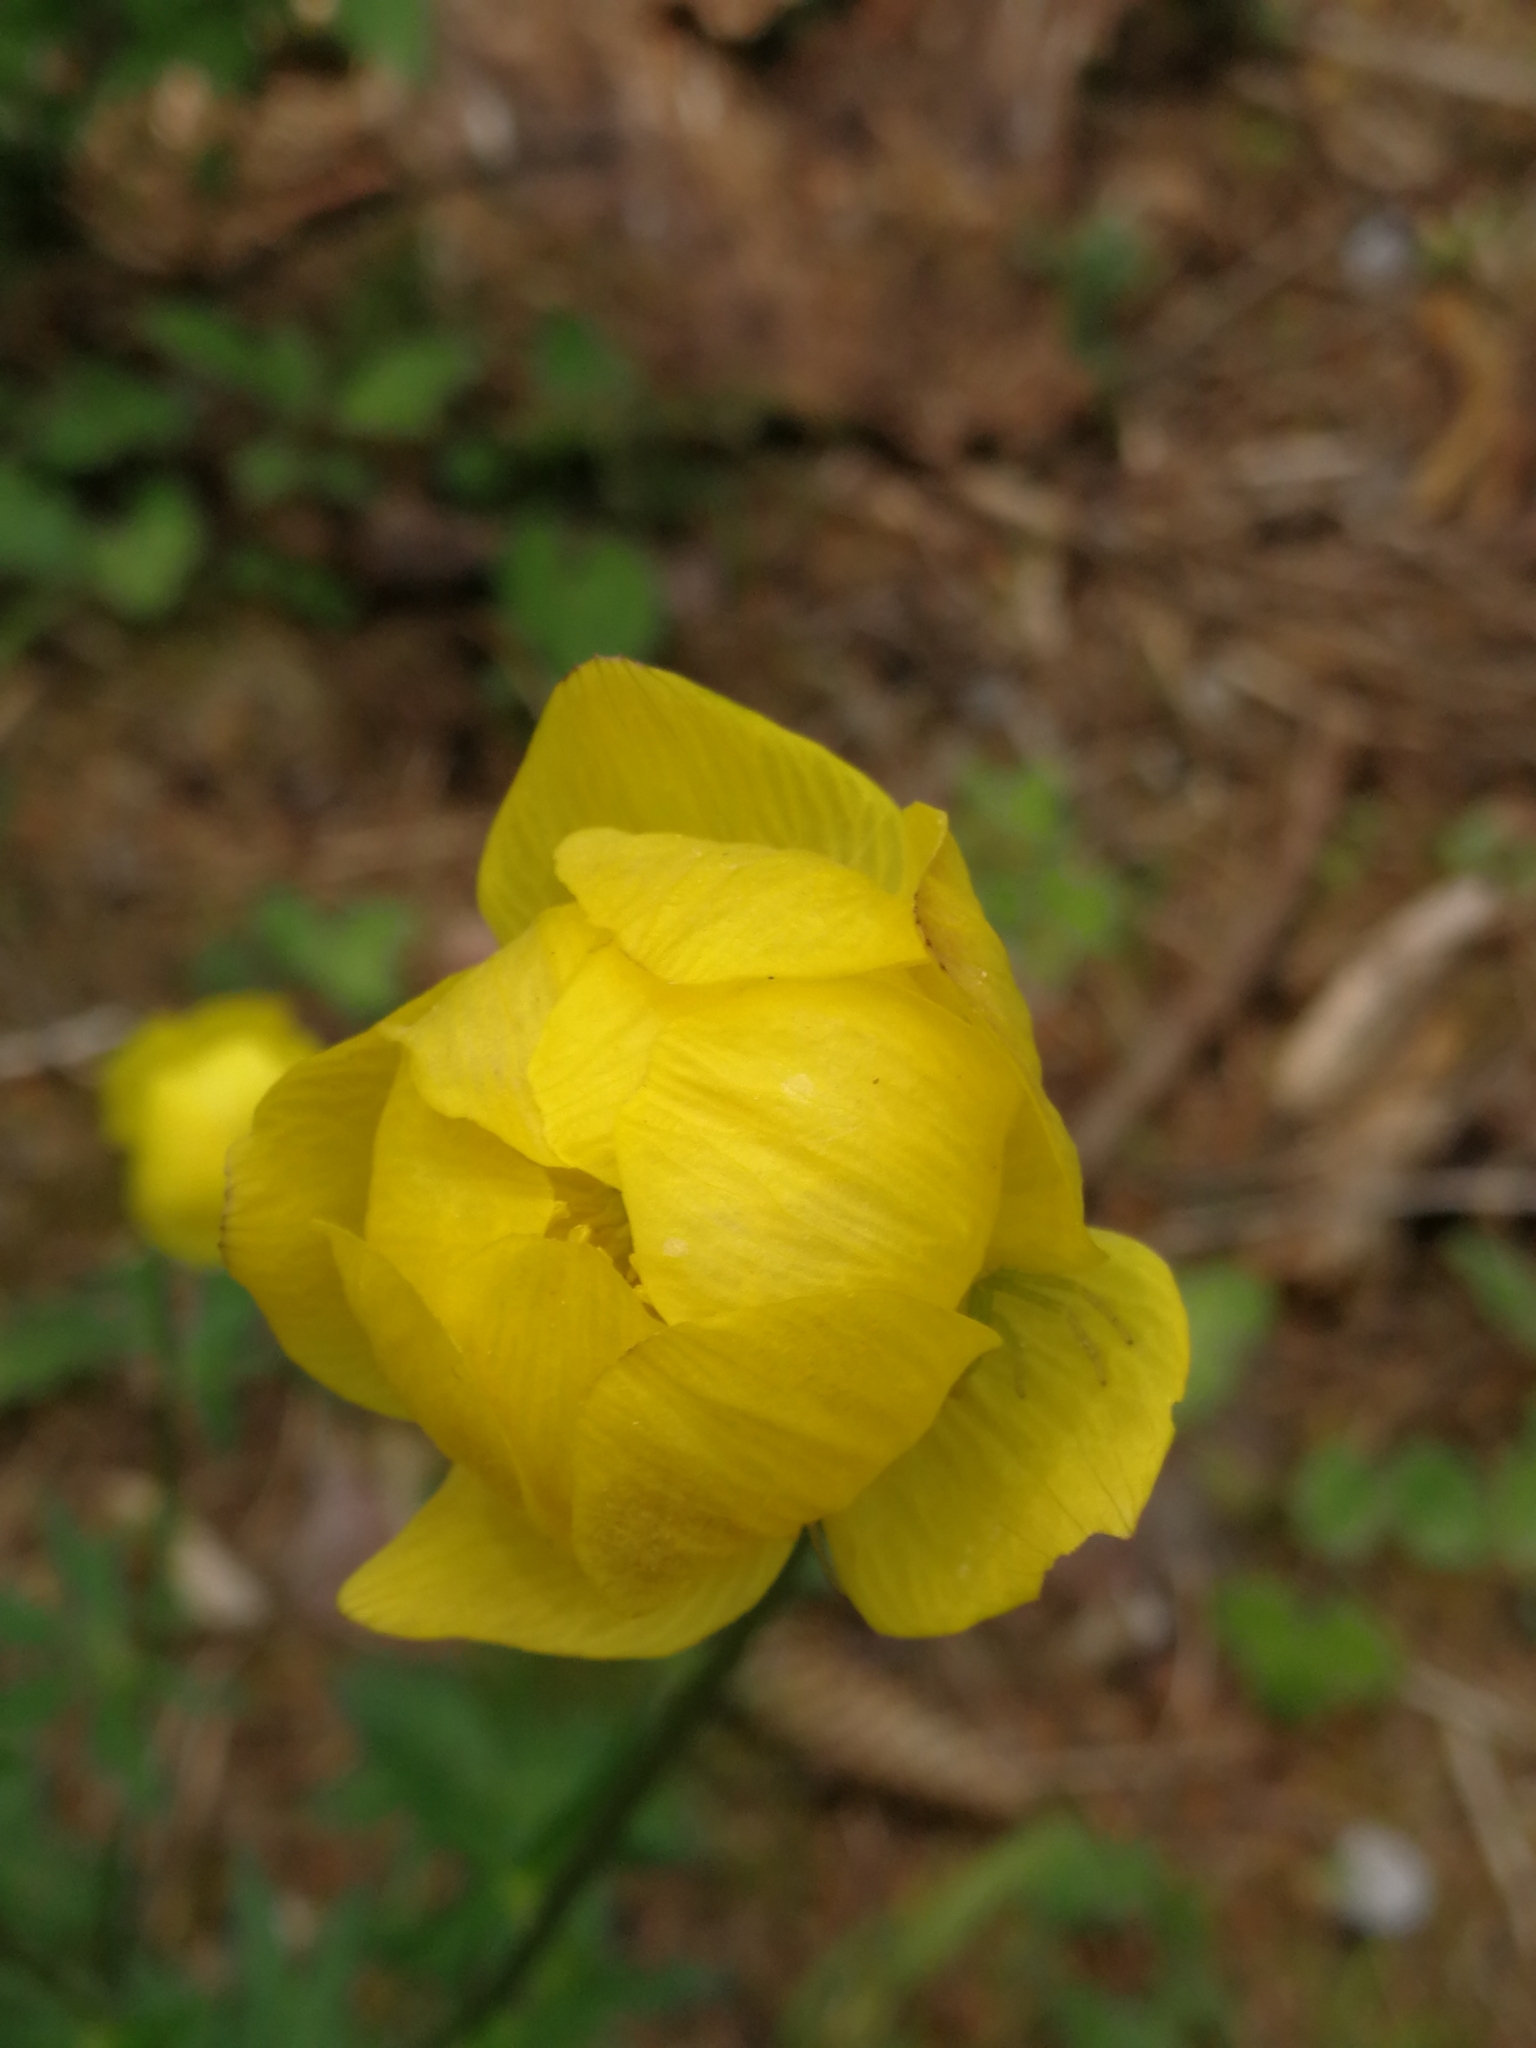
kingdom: Plantae
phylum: Tracheophyta
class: Magnoliopsida
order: Ranunculales
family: Ranunculaceae
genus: Trollius
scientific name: Trollius europaeus
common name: European globeflower
